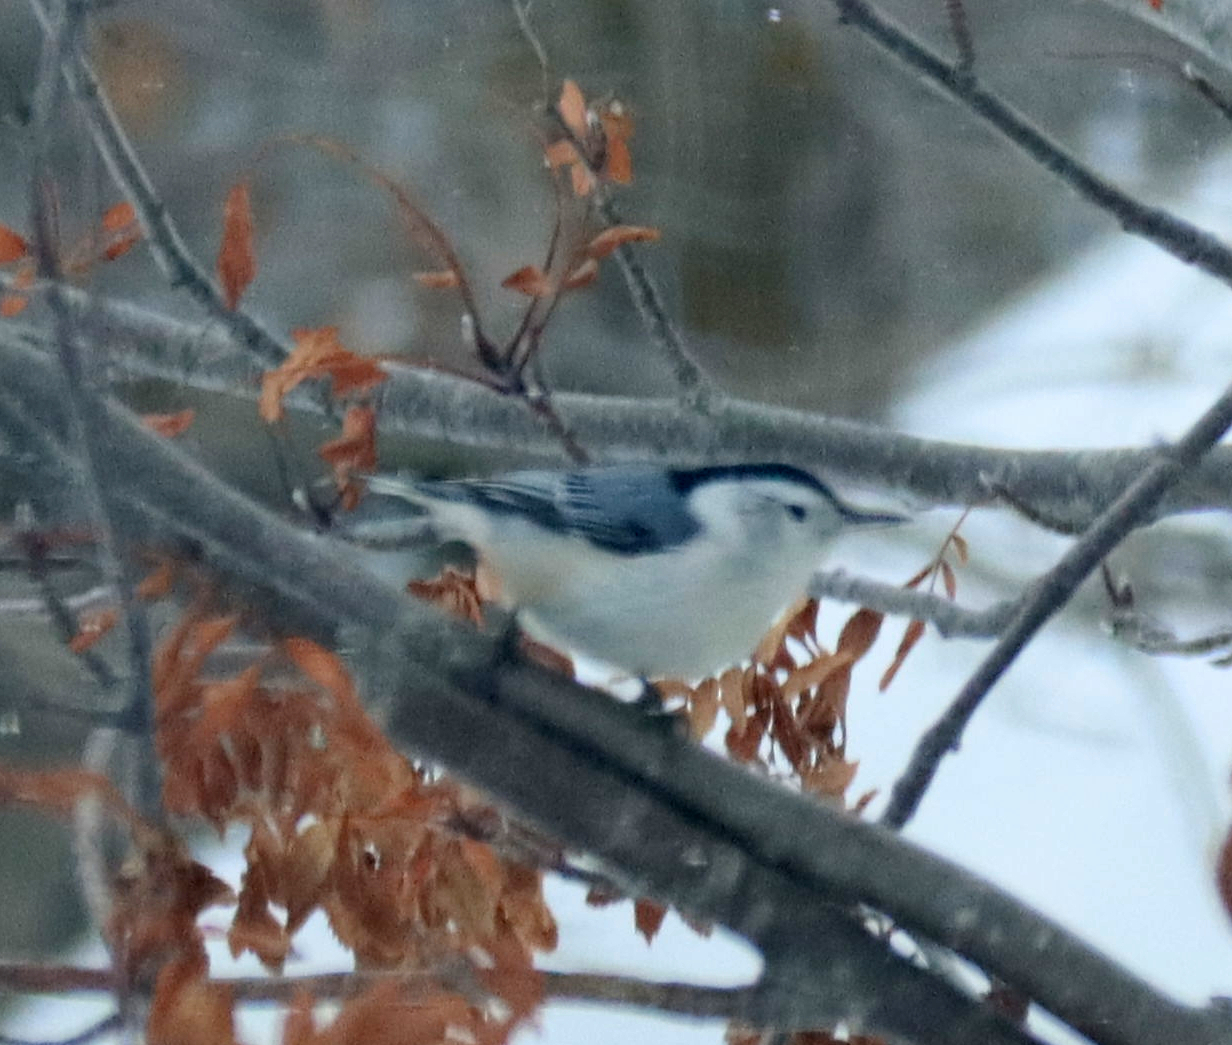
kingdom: Animalia
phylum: Chordata
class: Aves
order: Passeriformes
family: Sittidae
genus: Sitta
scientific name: Sitta carolinensis
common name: White-breasted nuthatch
